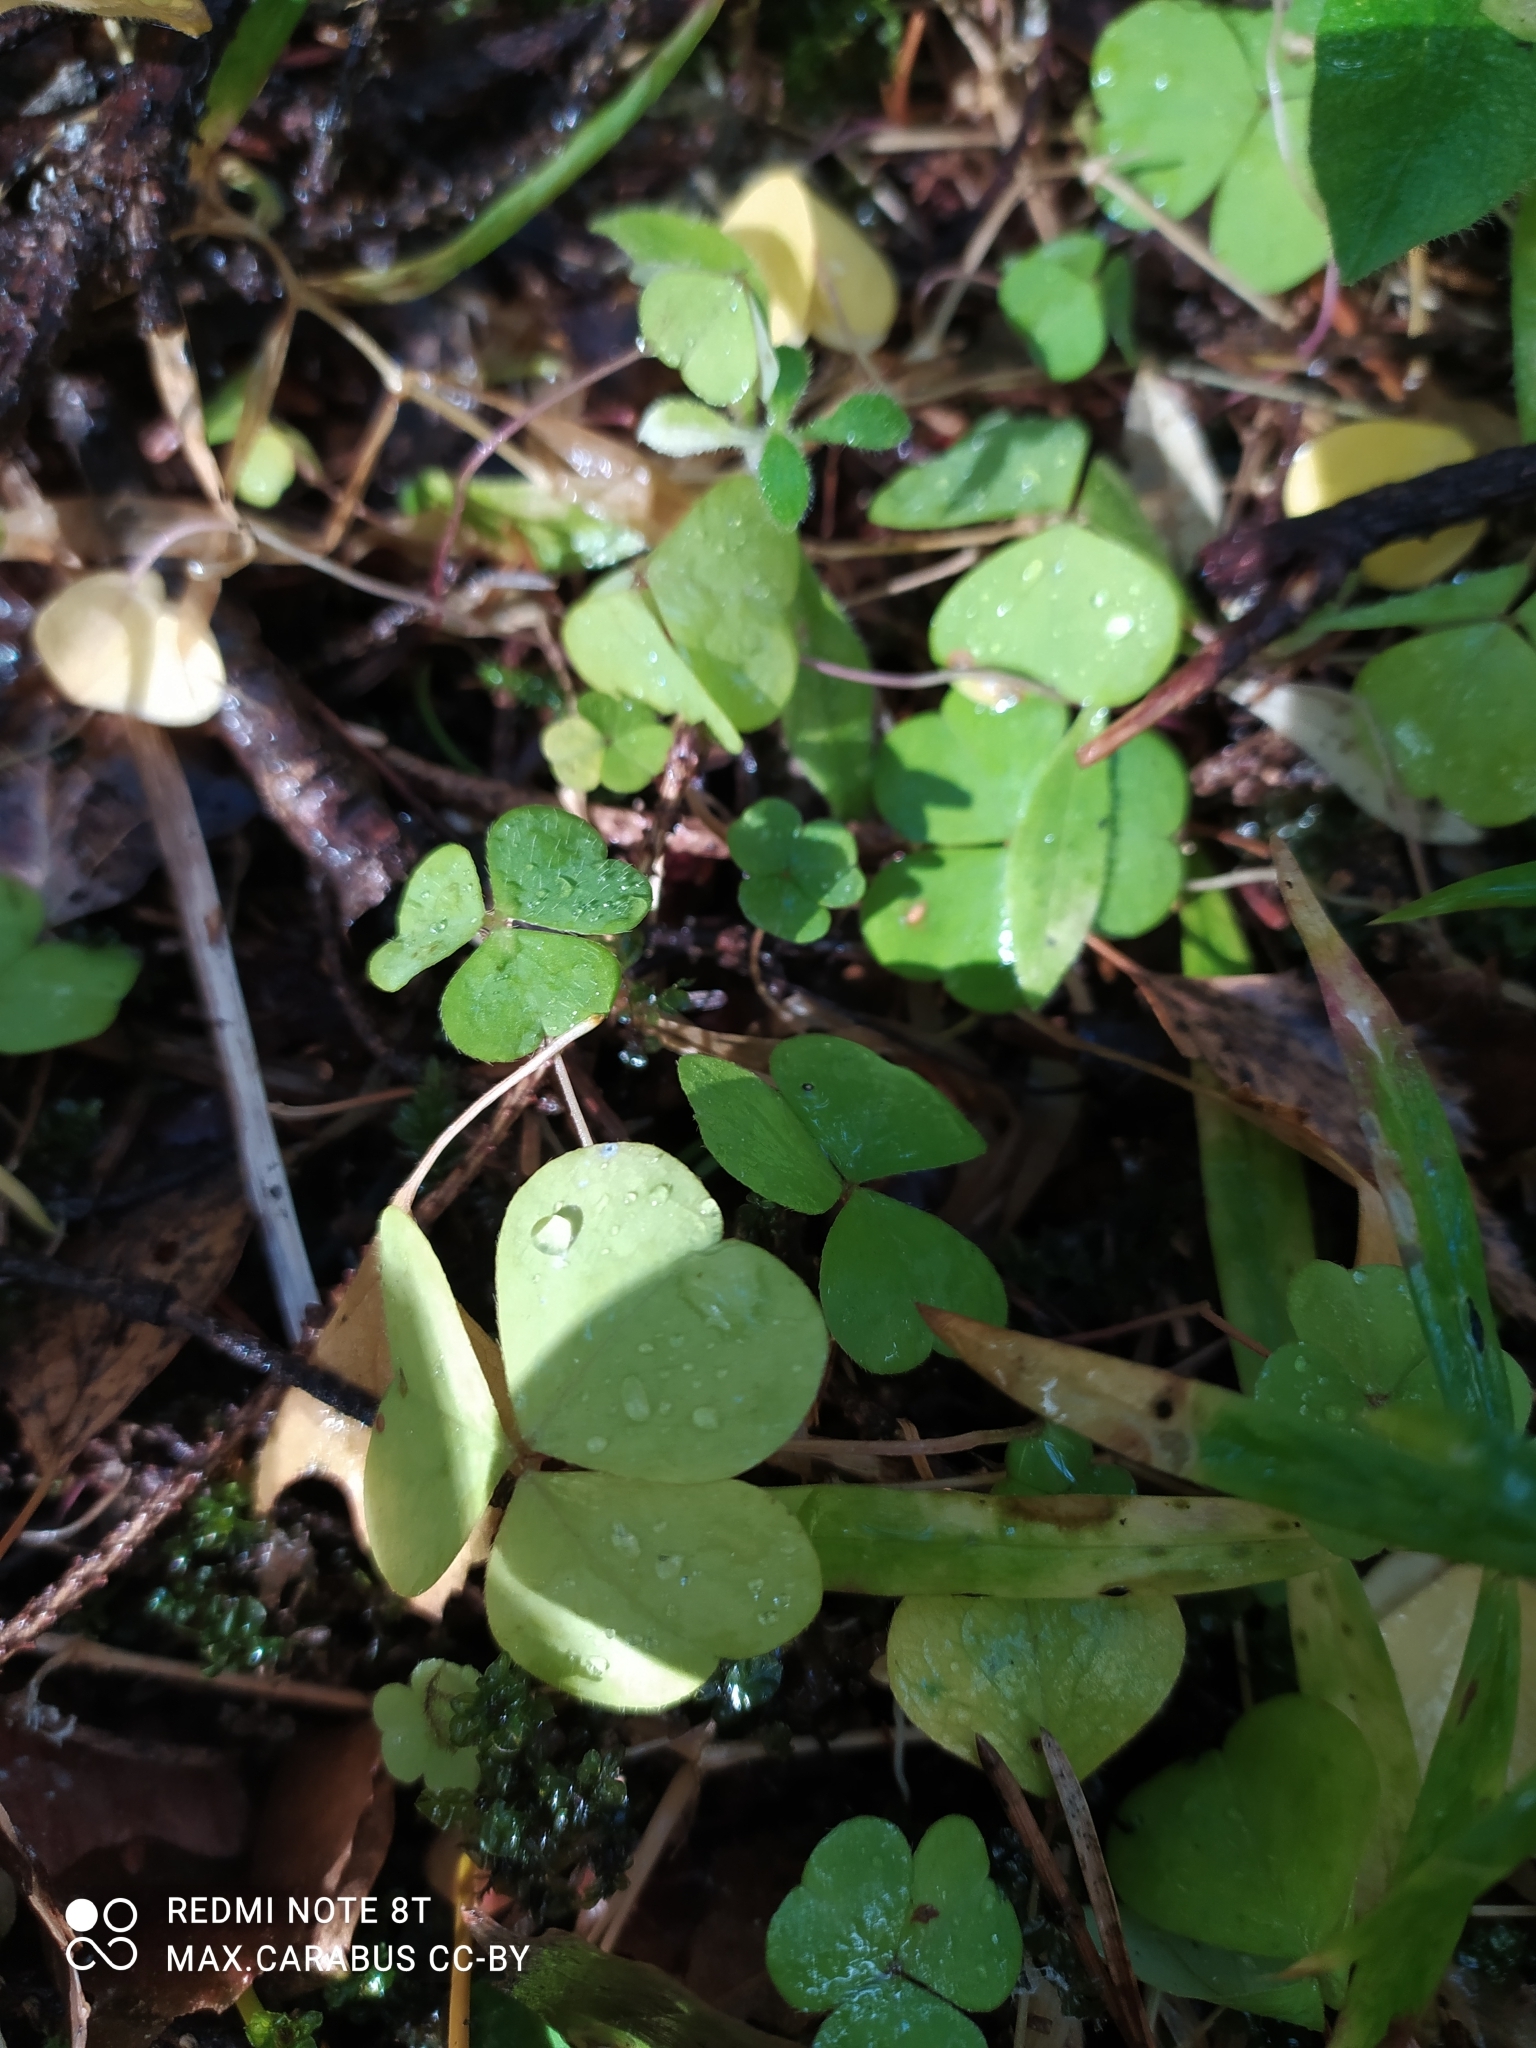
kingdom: Plantae
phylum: Tracheophyta
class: Magnoliopsida
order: Oxalidales
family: Oxalidaceae
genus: Oxalis
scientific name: Oxalis acetosella
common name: Wood-sorrel
